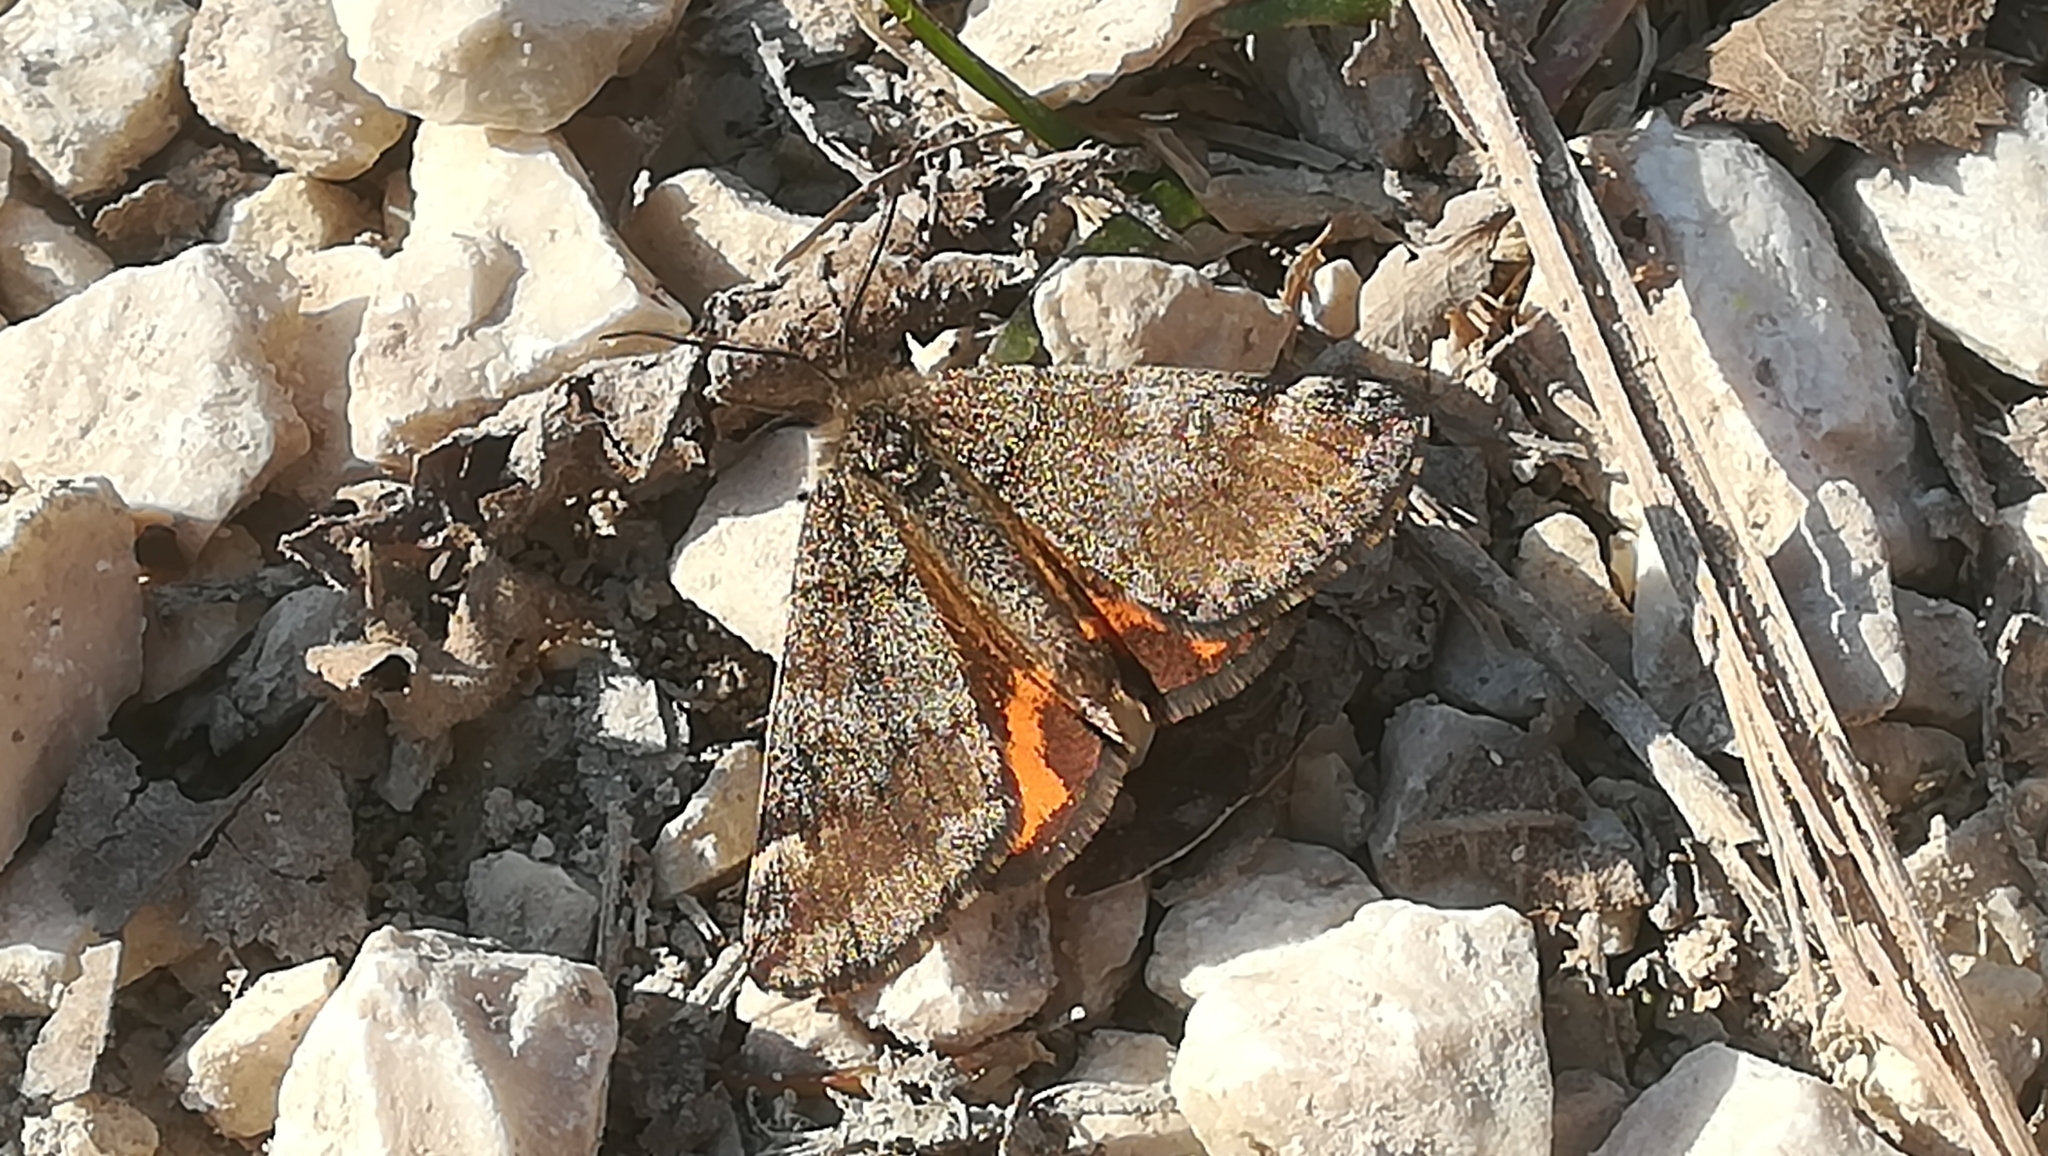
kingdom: Animalia
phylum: Arthropoda
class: Insecta
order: Lepidoptera
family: Geometridae
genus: Archiearis
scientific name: Archiearis notha
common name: Light orange underwing
